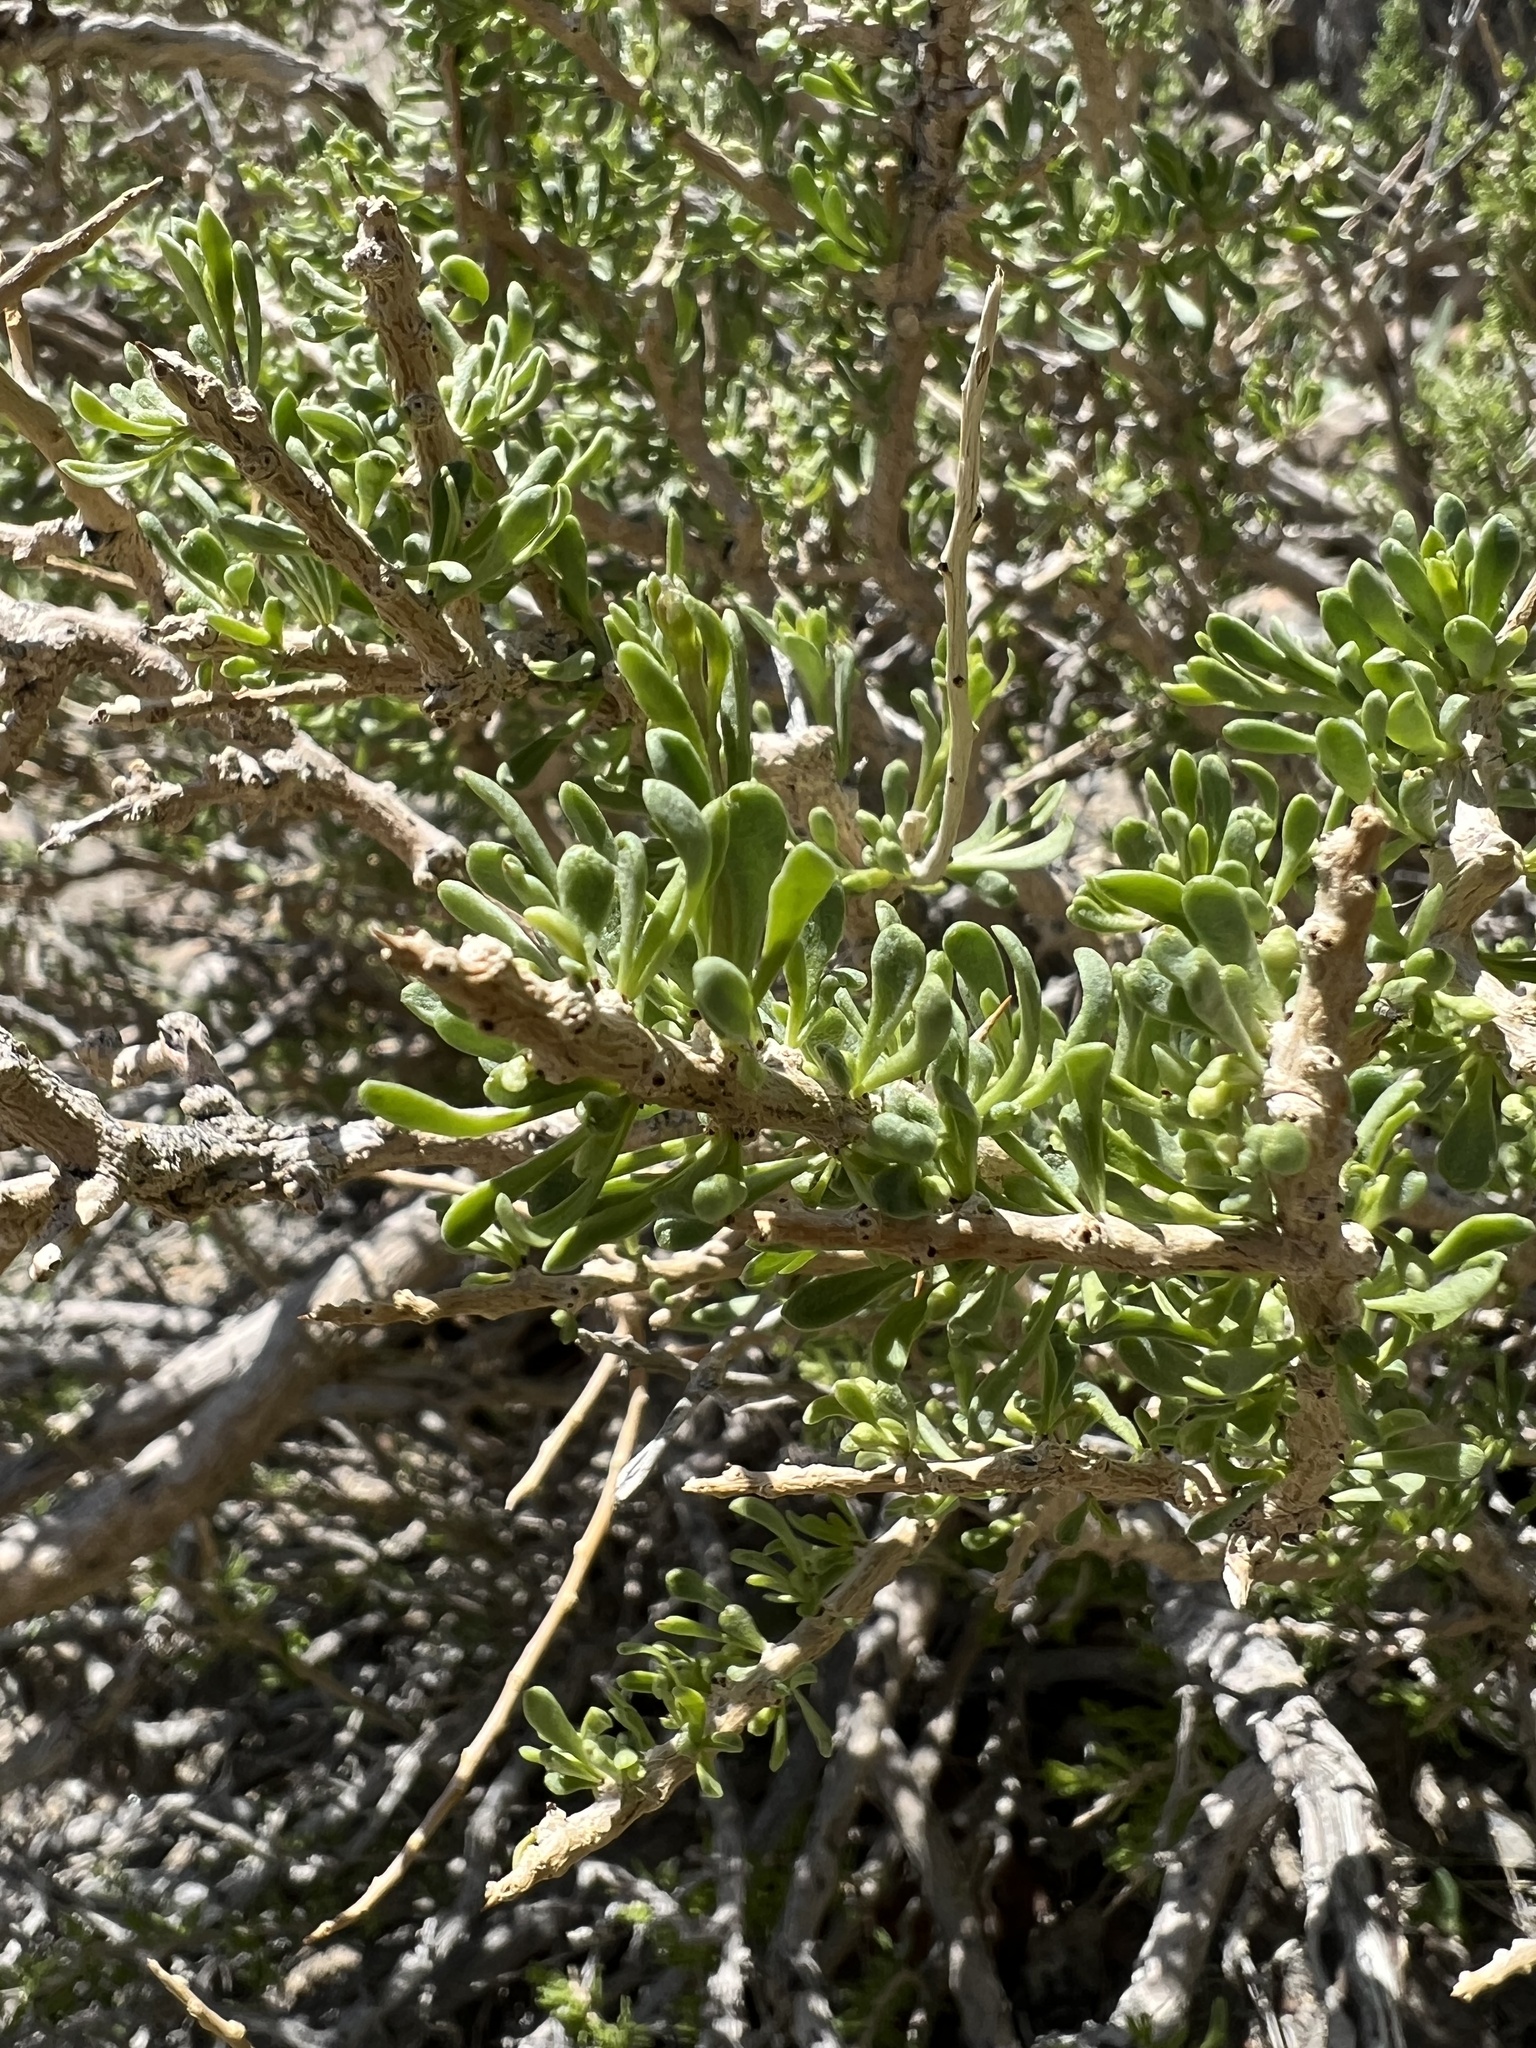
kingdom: Plantae
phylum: Tracheophyta
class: Magnoliopsida
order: Solanales
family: Solanaceae
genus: Lycium
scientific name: Lycium andersonii
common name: Water-jacket
